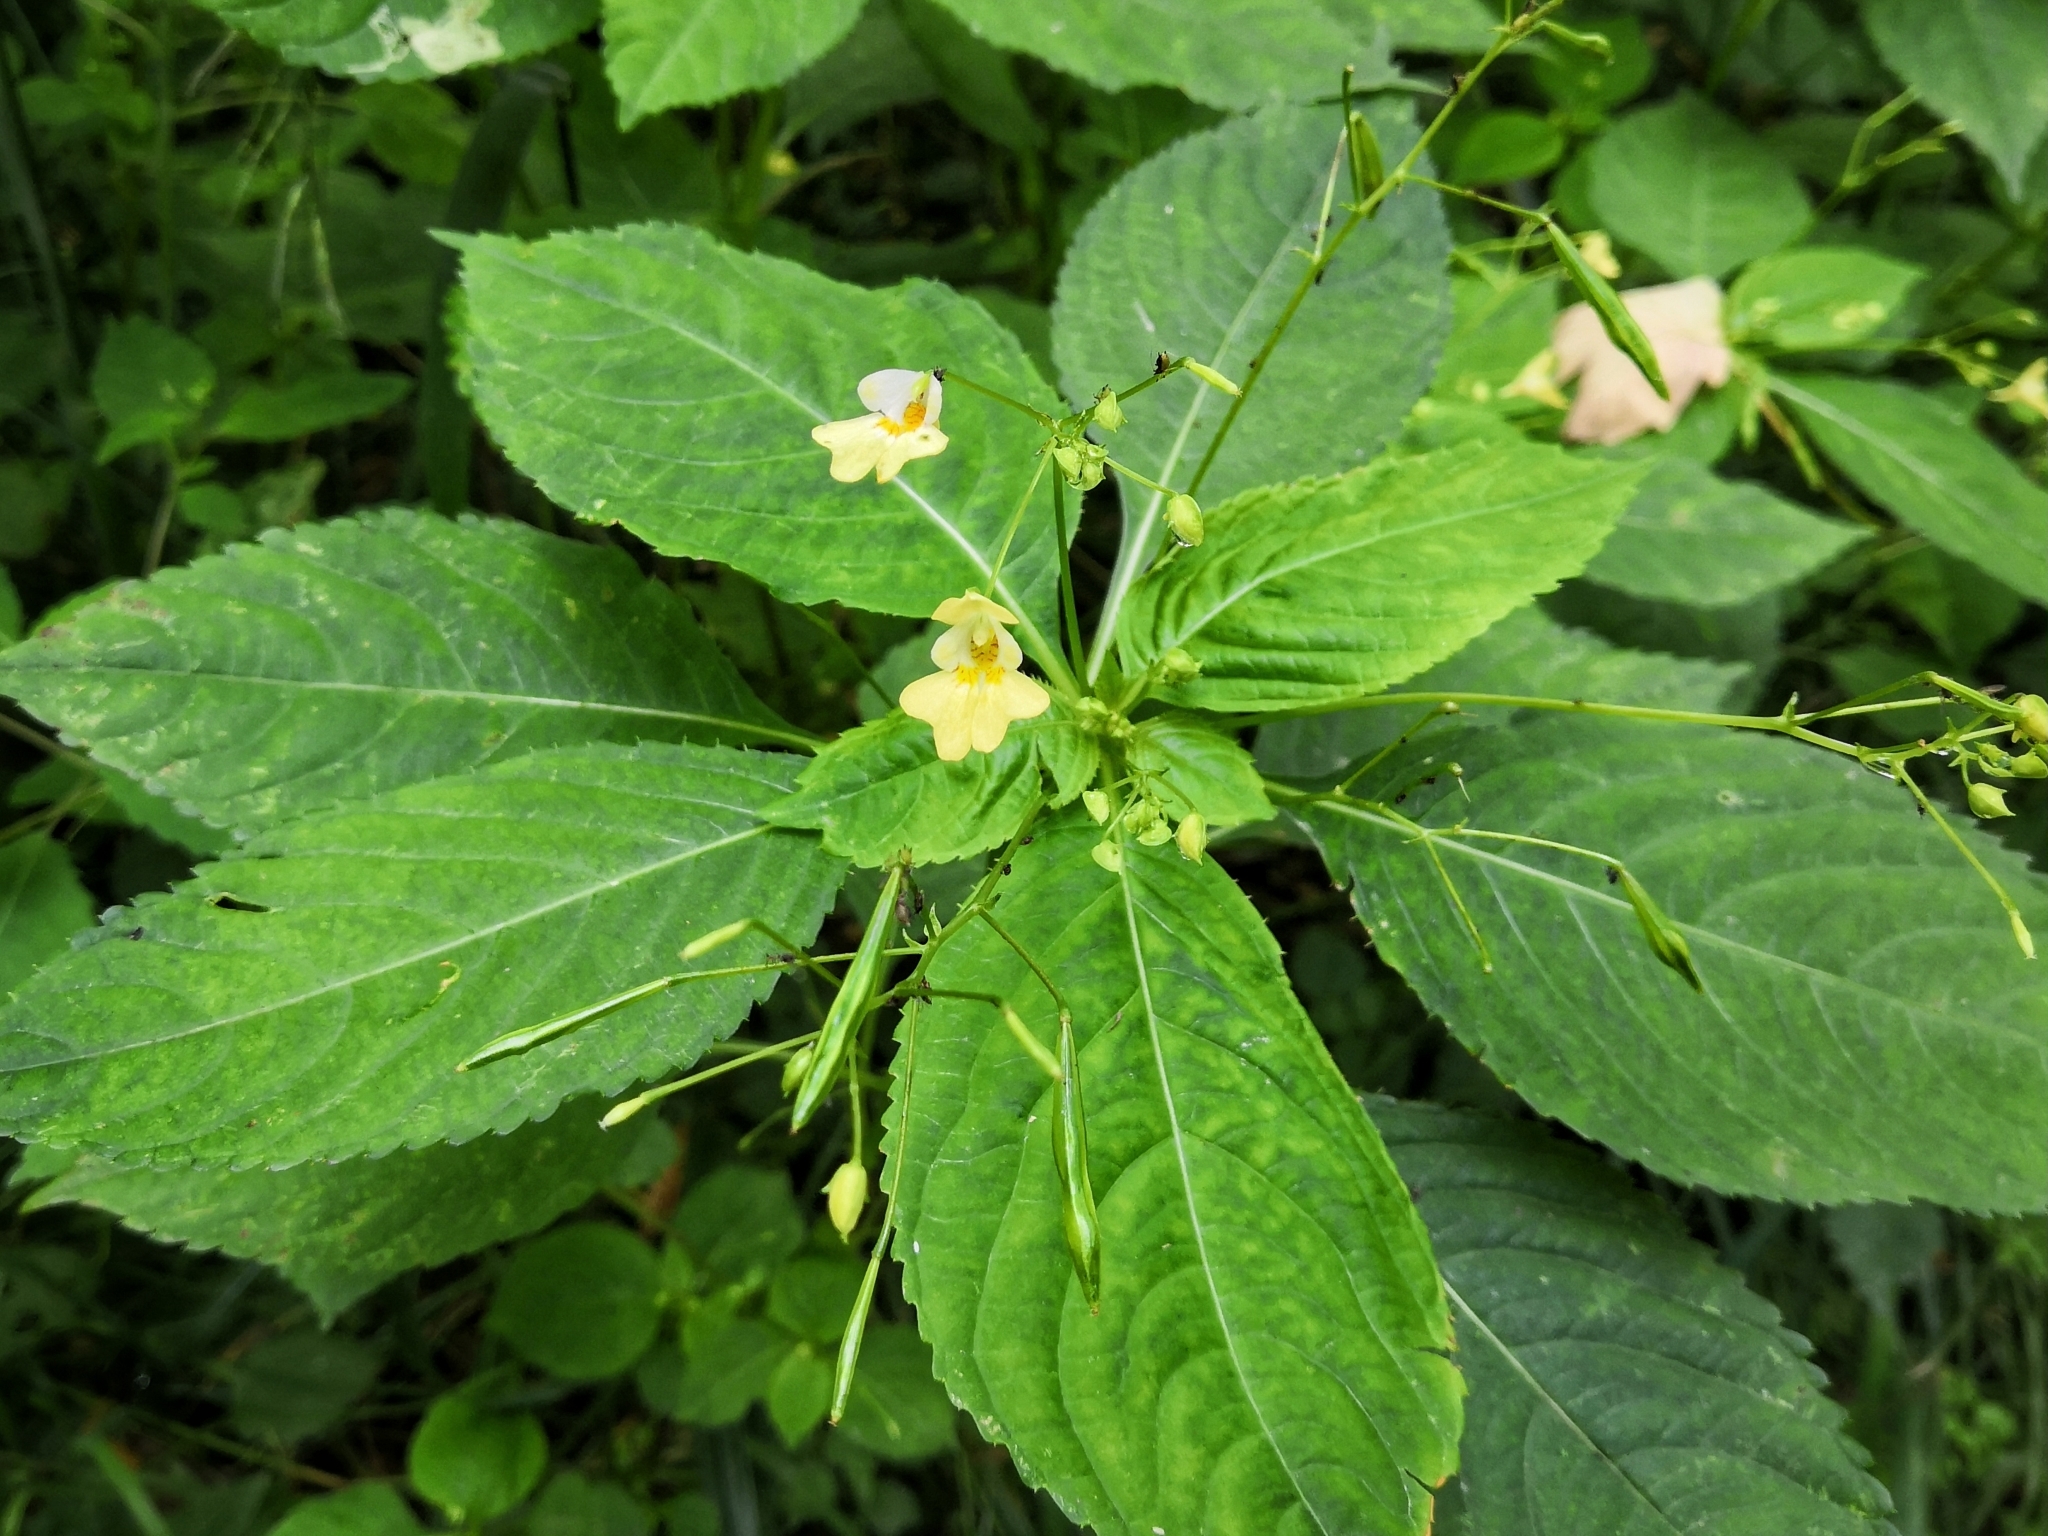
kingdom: Plantae
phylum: Tracheophyta
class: Magnoliopsida
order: Ericales
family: Balsaminaceae
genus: Impatiens
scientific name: Impatiens parviflora
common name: Small balsam
